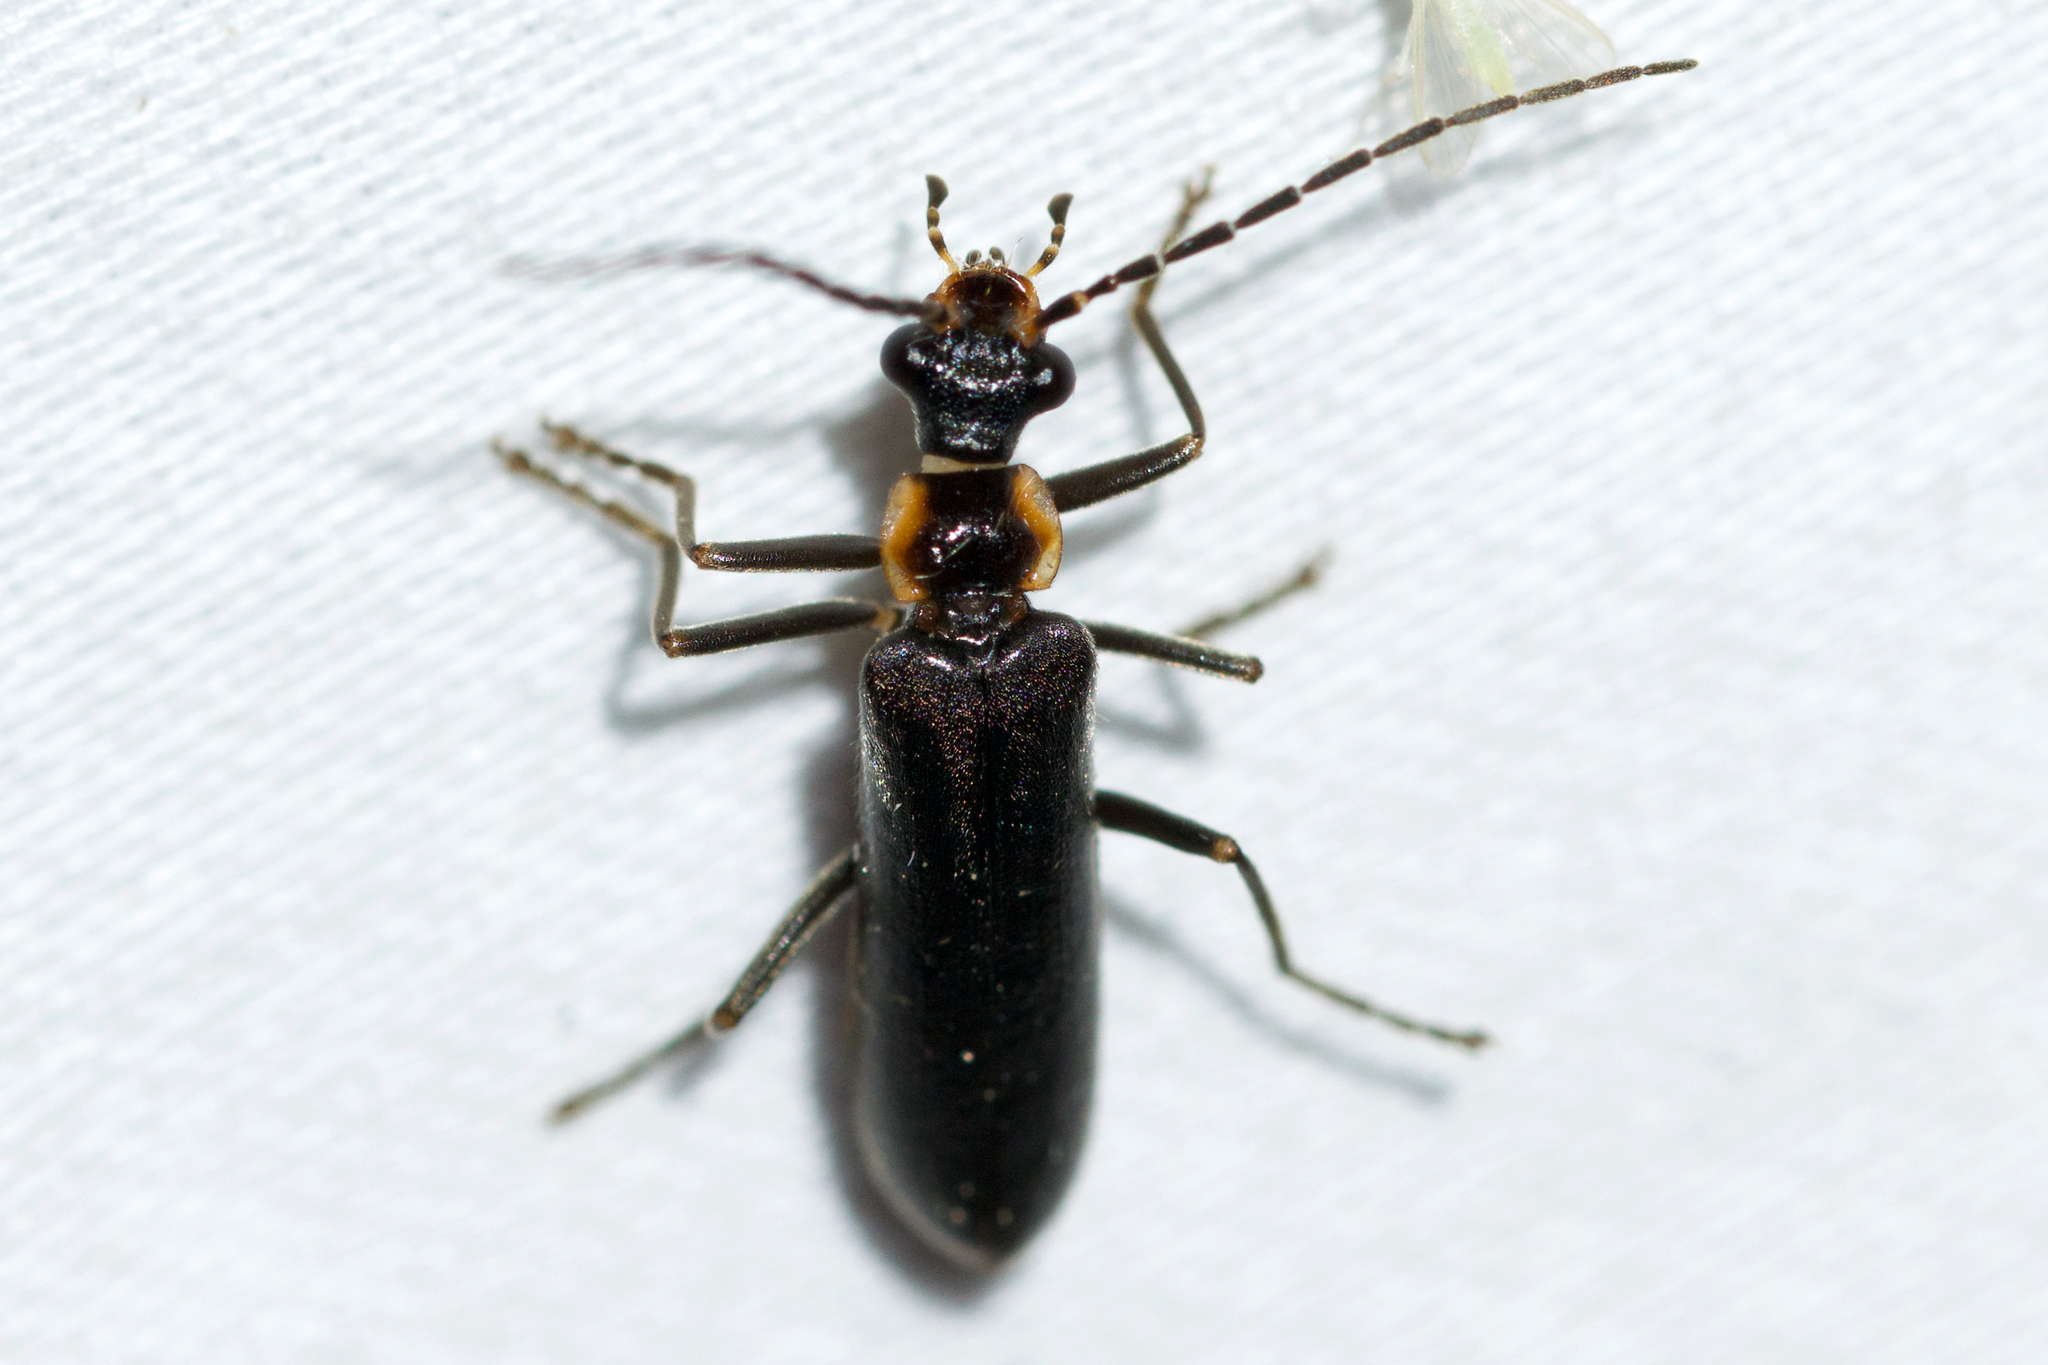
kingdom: Animalia
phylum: Arthropoda
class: Insecta
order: Coleoptera
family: Cantharidae
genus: Podabrus
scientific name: Podabrus diadema
